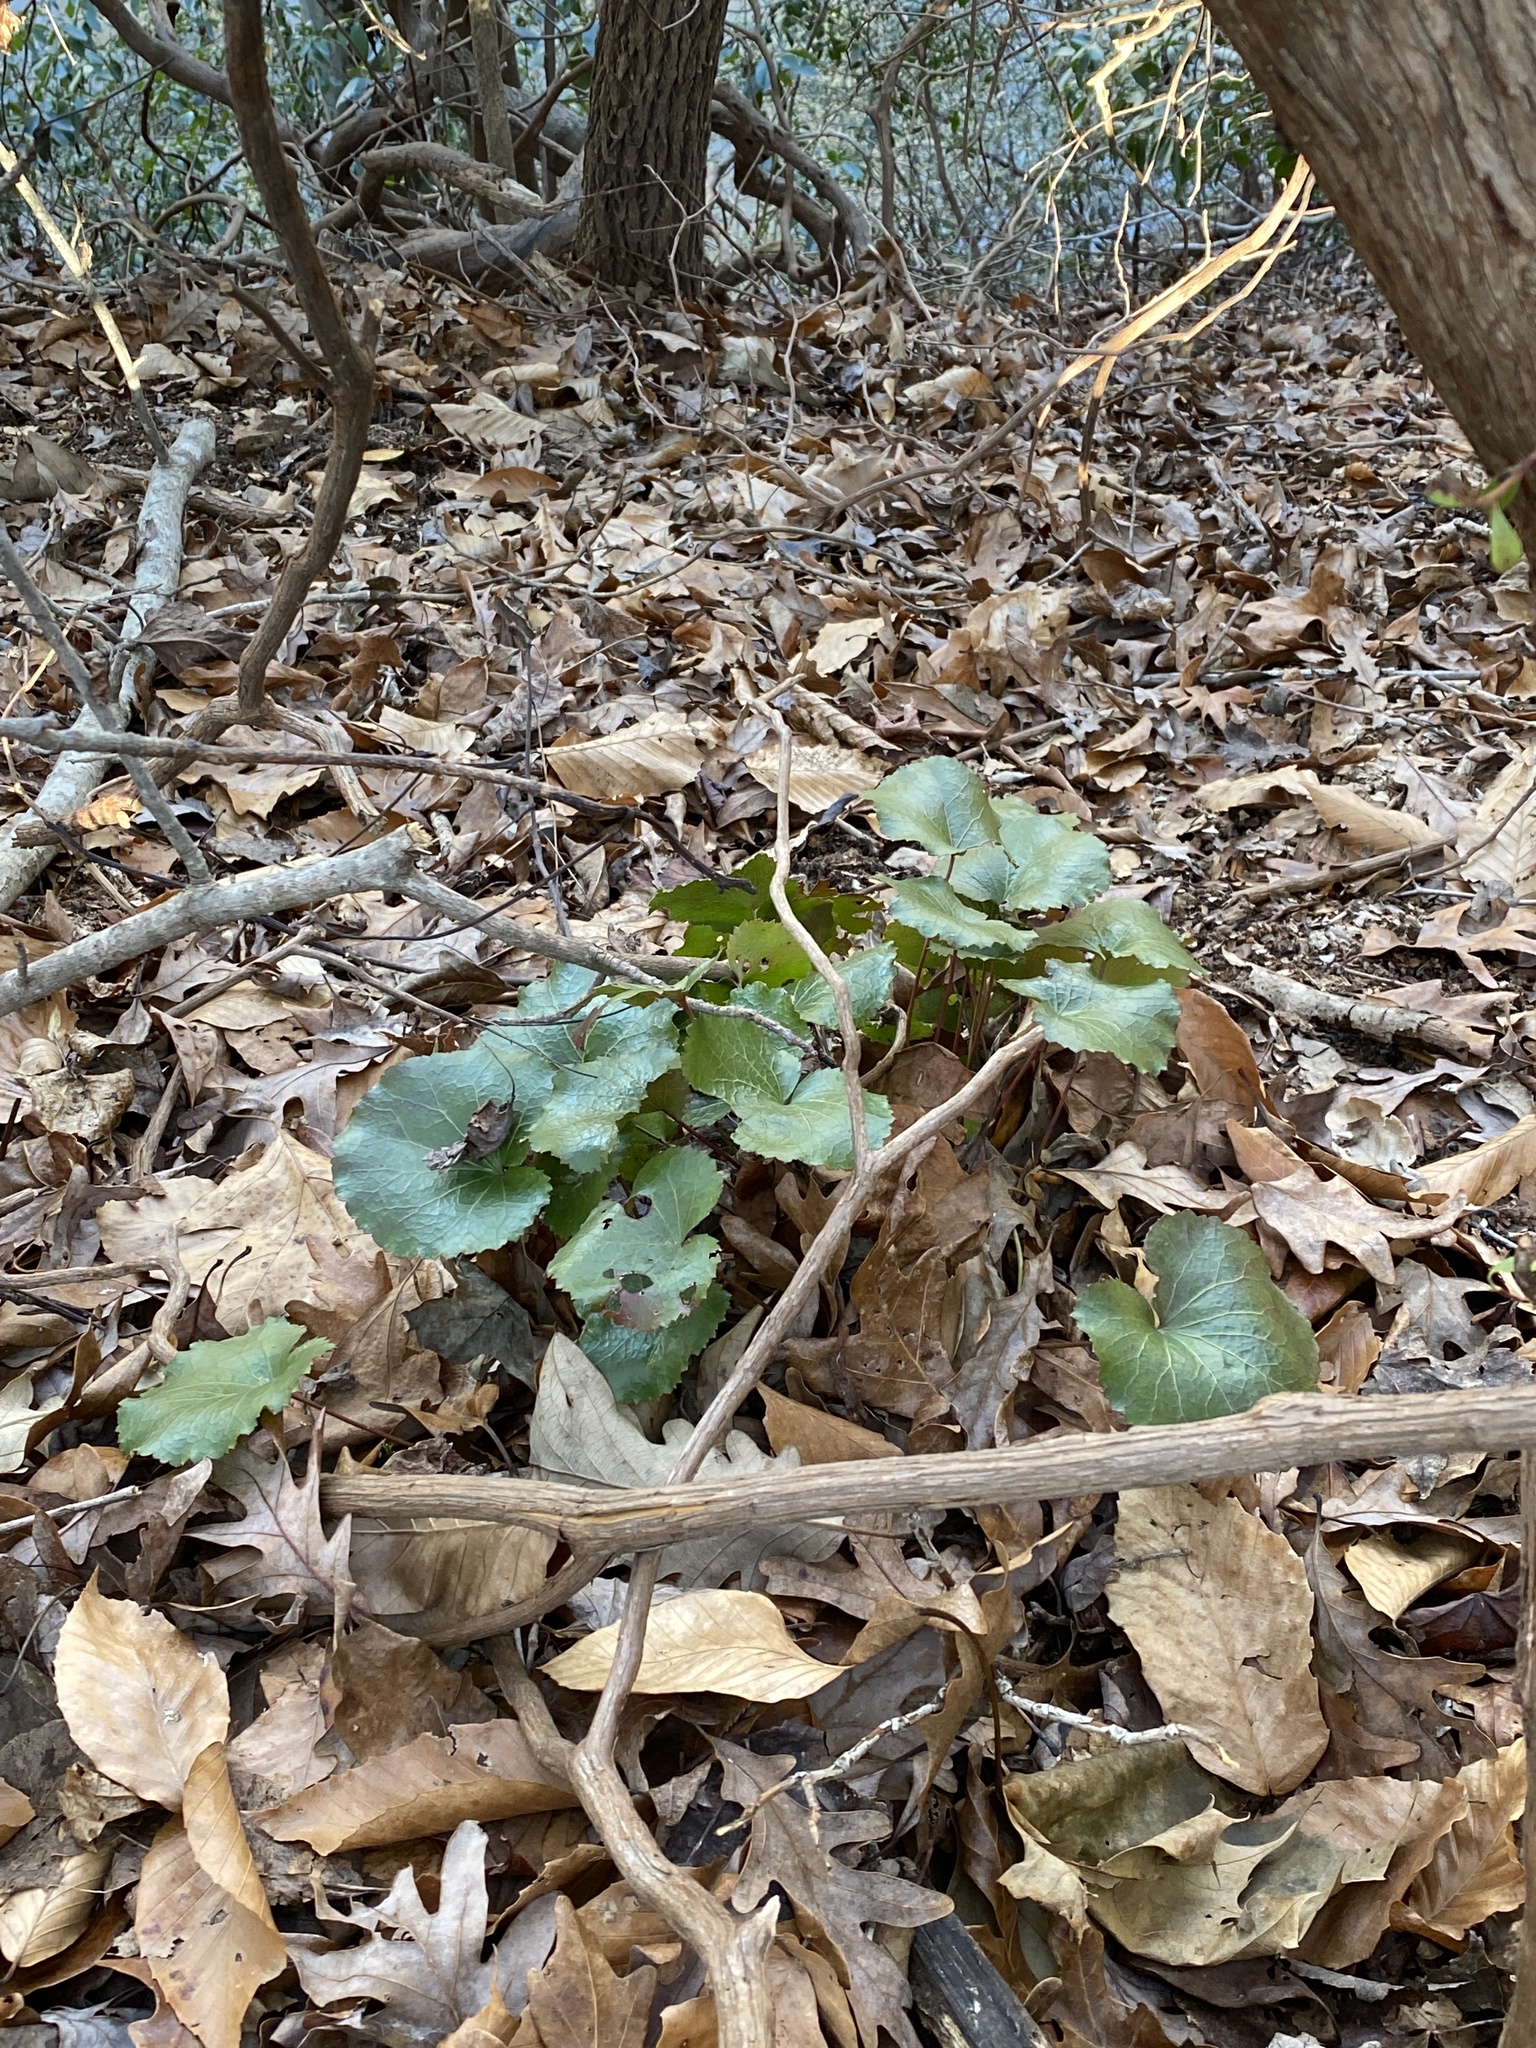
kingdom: Plantae
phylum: Tracheophyta
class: Magnoliopsida
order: Ericales
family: Diapensiaceae
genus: Galax
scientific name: Galax urceolata
